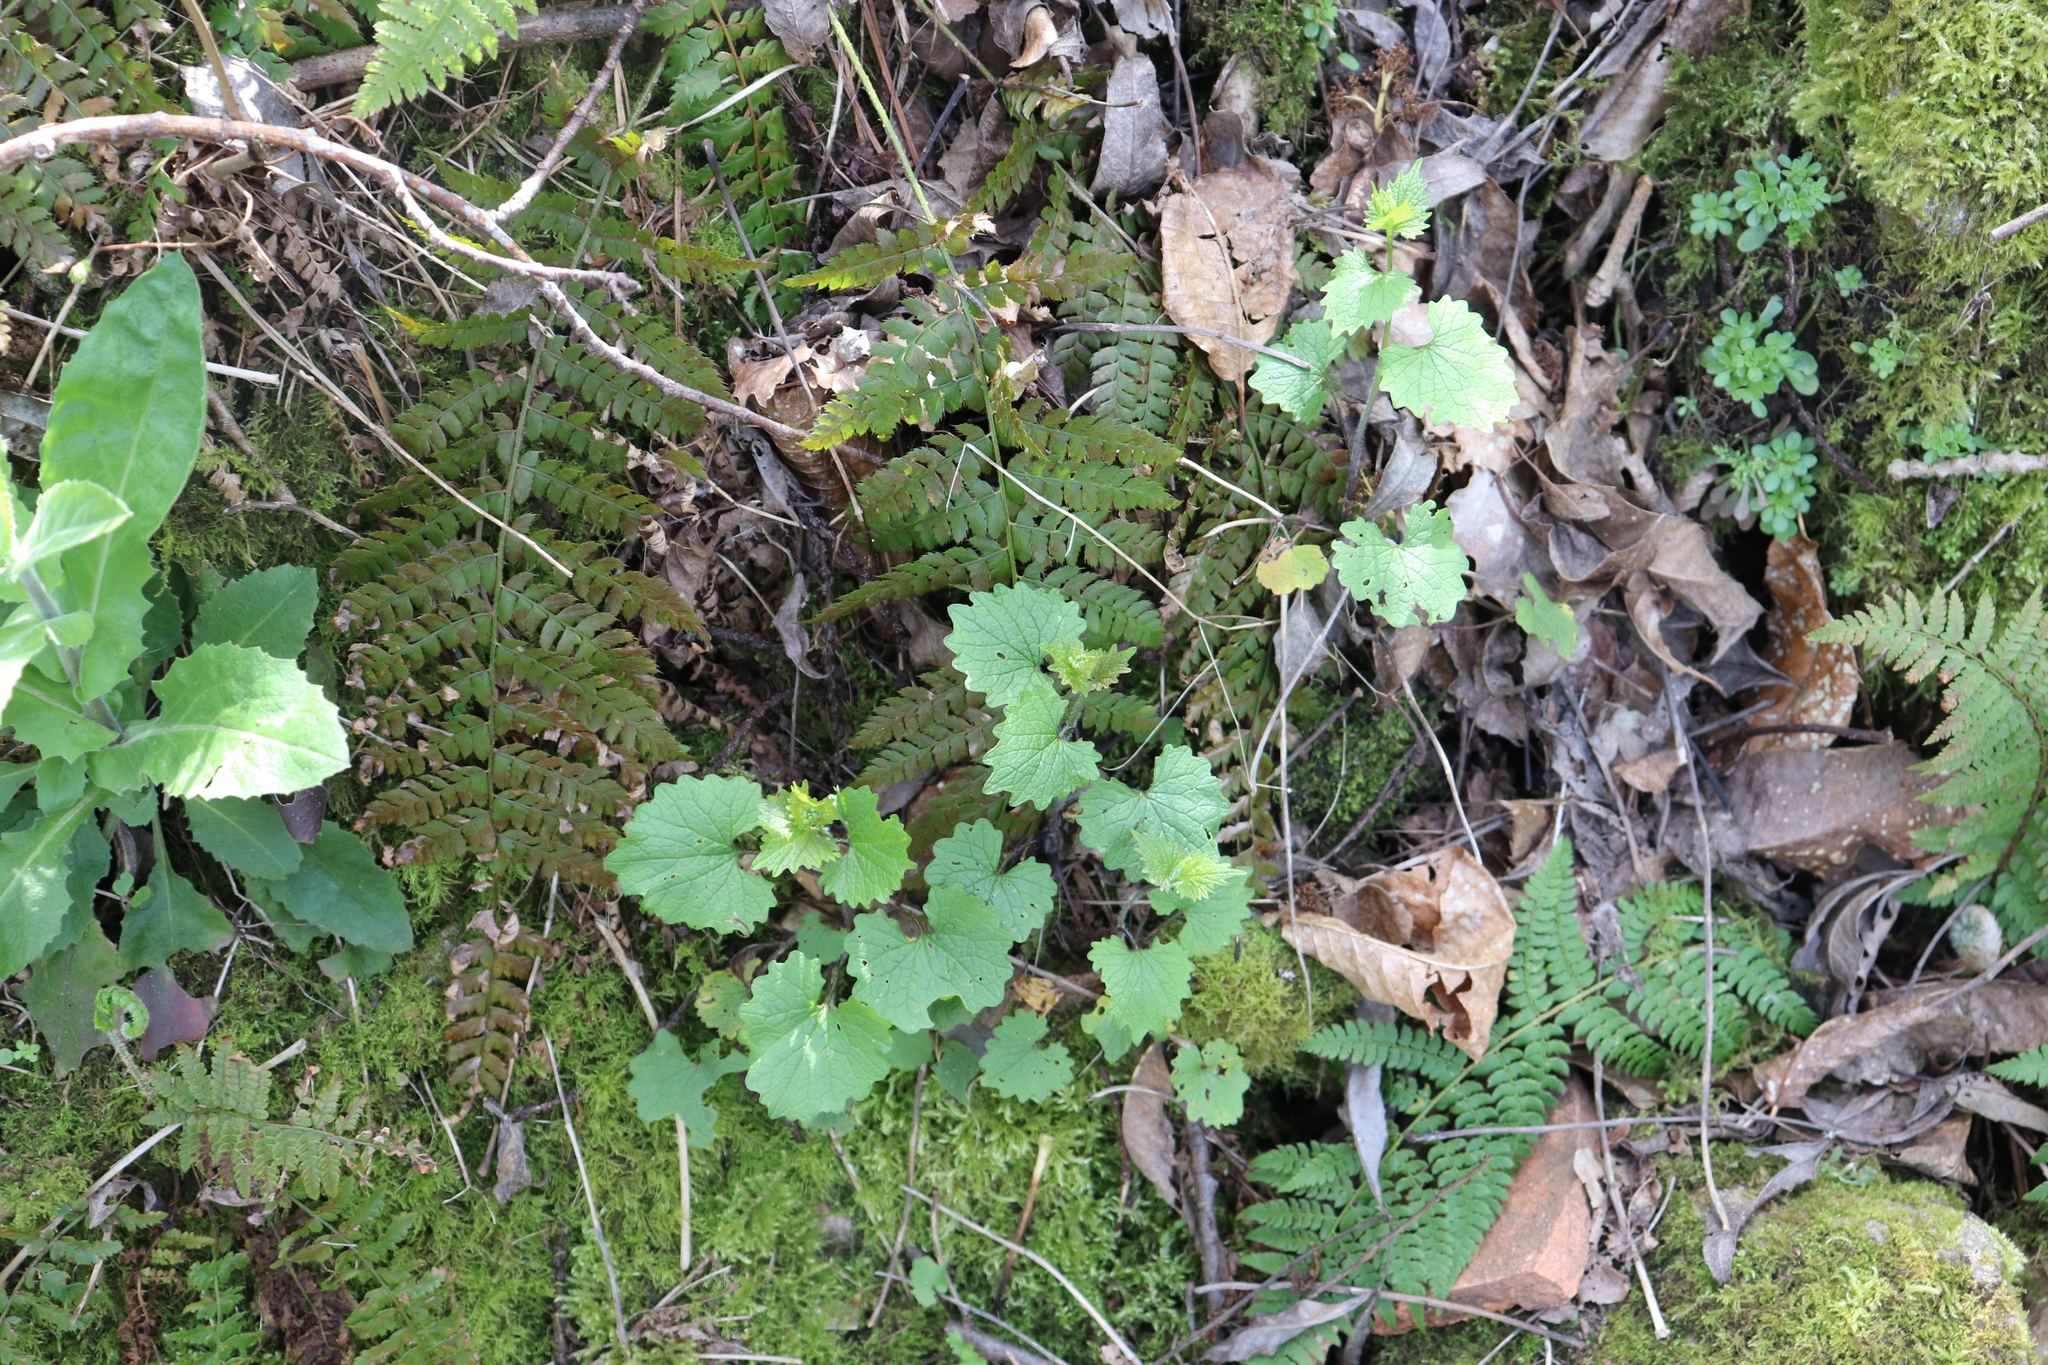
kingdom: Plantae
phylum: Tracheophyta
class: Magnoliopsida
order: Brassicales
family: Brassicaceae
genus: Alliaria
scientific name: Alliaria petiolata
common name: Garlic mustard
